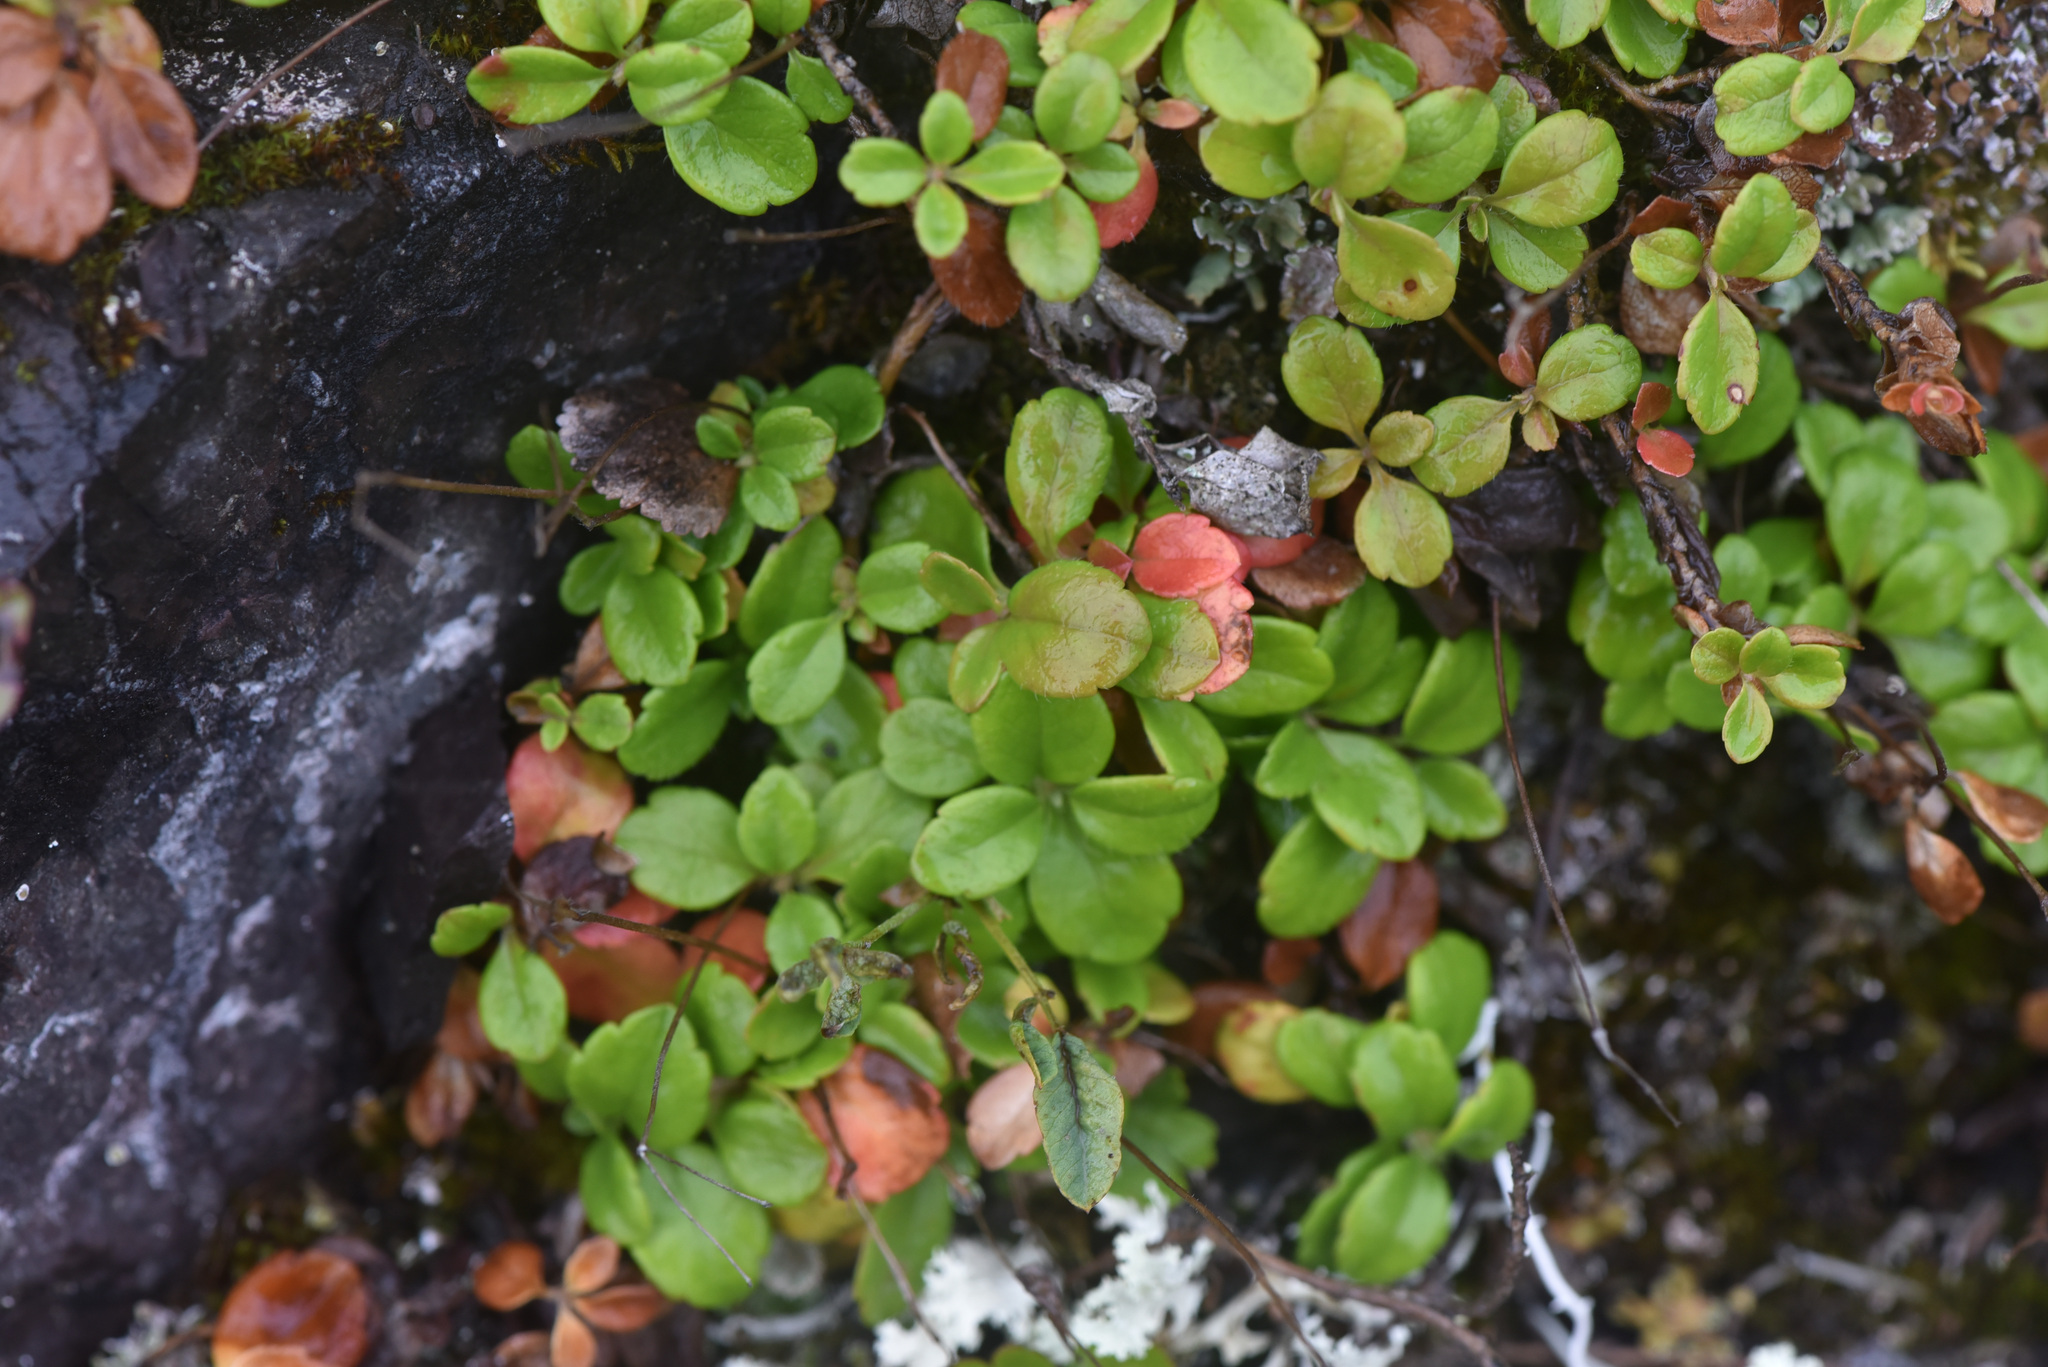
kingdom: Plantae
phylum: Tracheophyta
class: Magnoliopsida
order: Dipsacales
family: Caprifoliaceae
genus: Linnaea
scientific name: Linnaea borealis
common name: Twinflower
